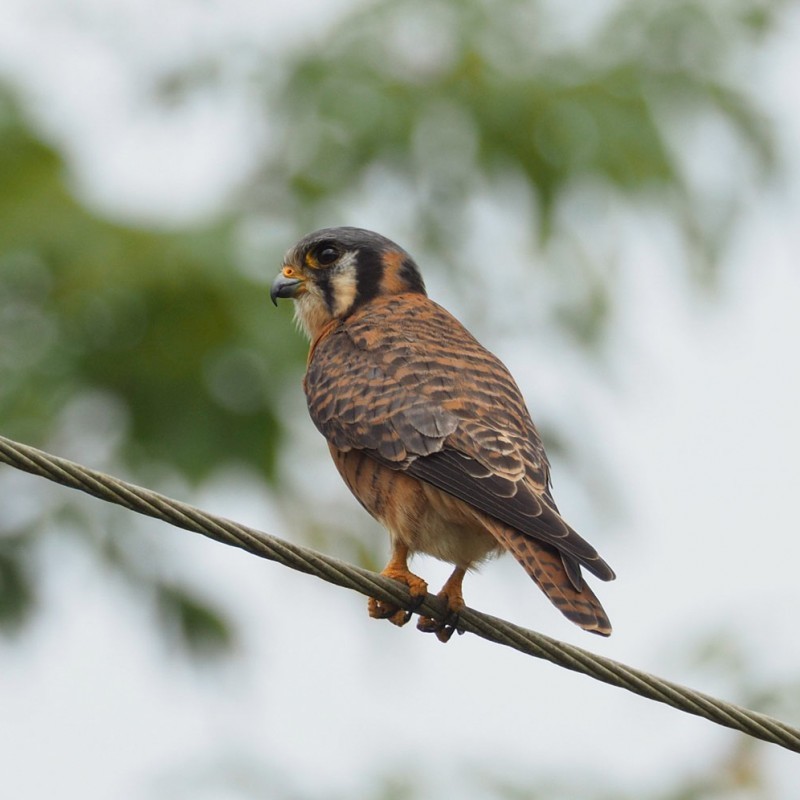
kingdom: Animalia
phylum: Chordata
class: Aves
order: Falconiformes
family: Falconidae
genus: Falco
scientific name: Falco sparverius
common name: American kestrel
